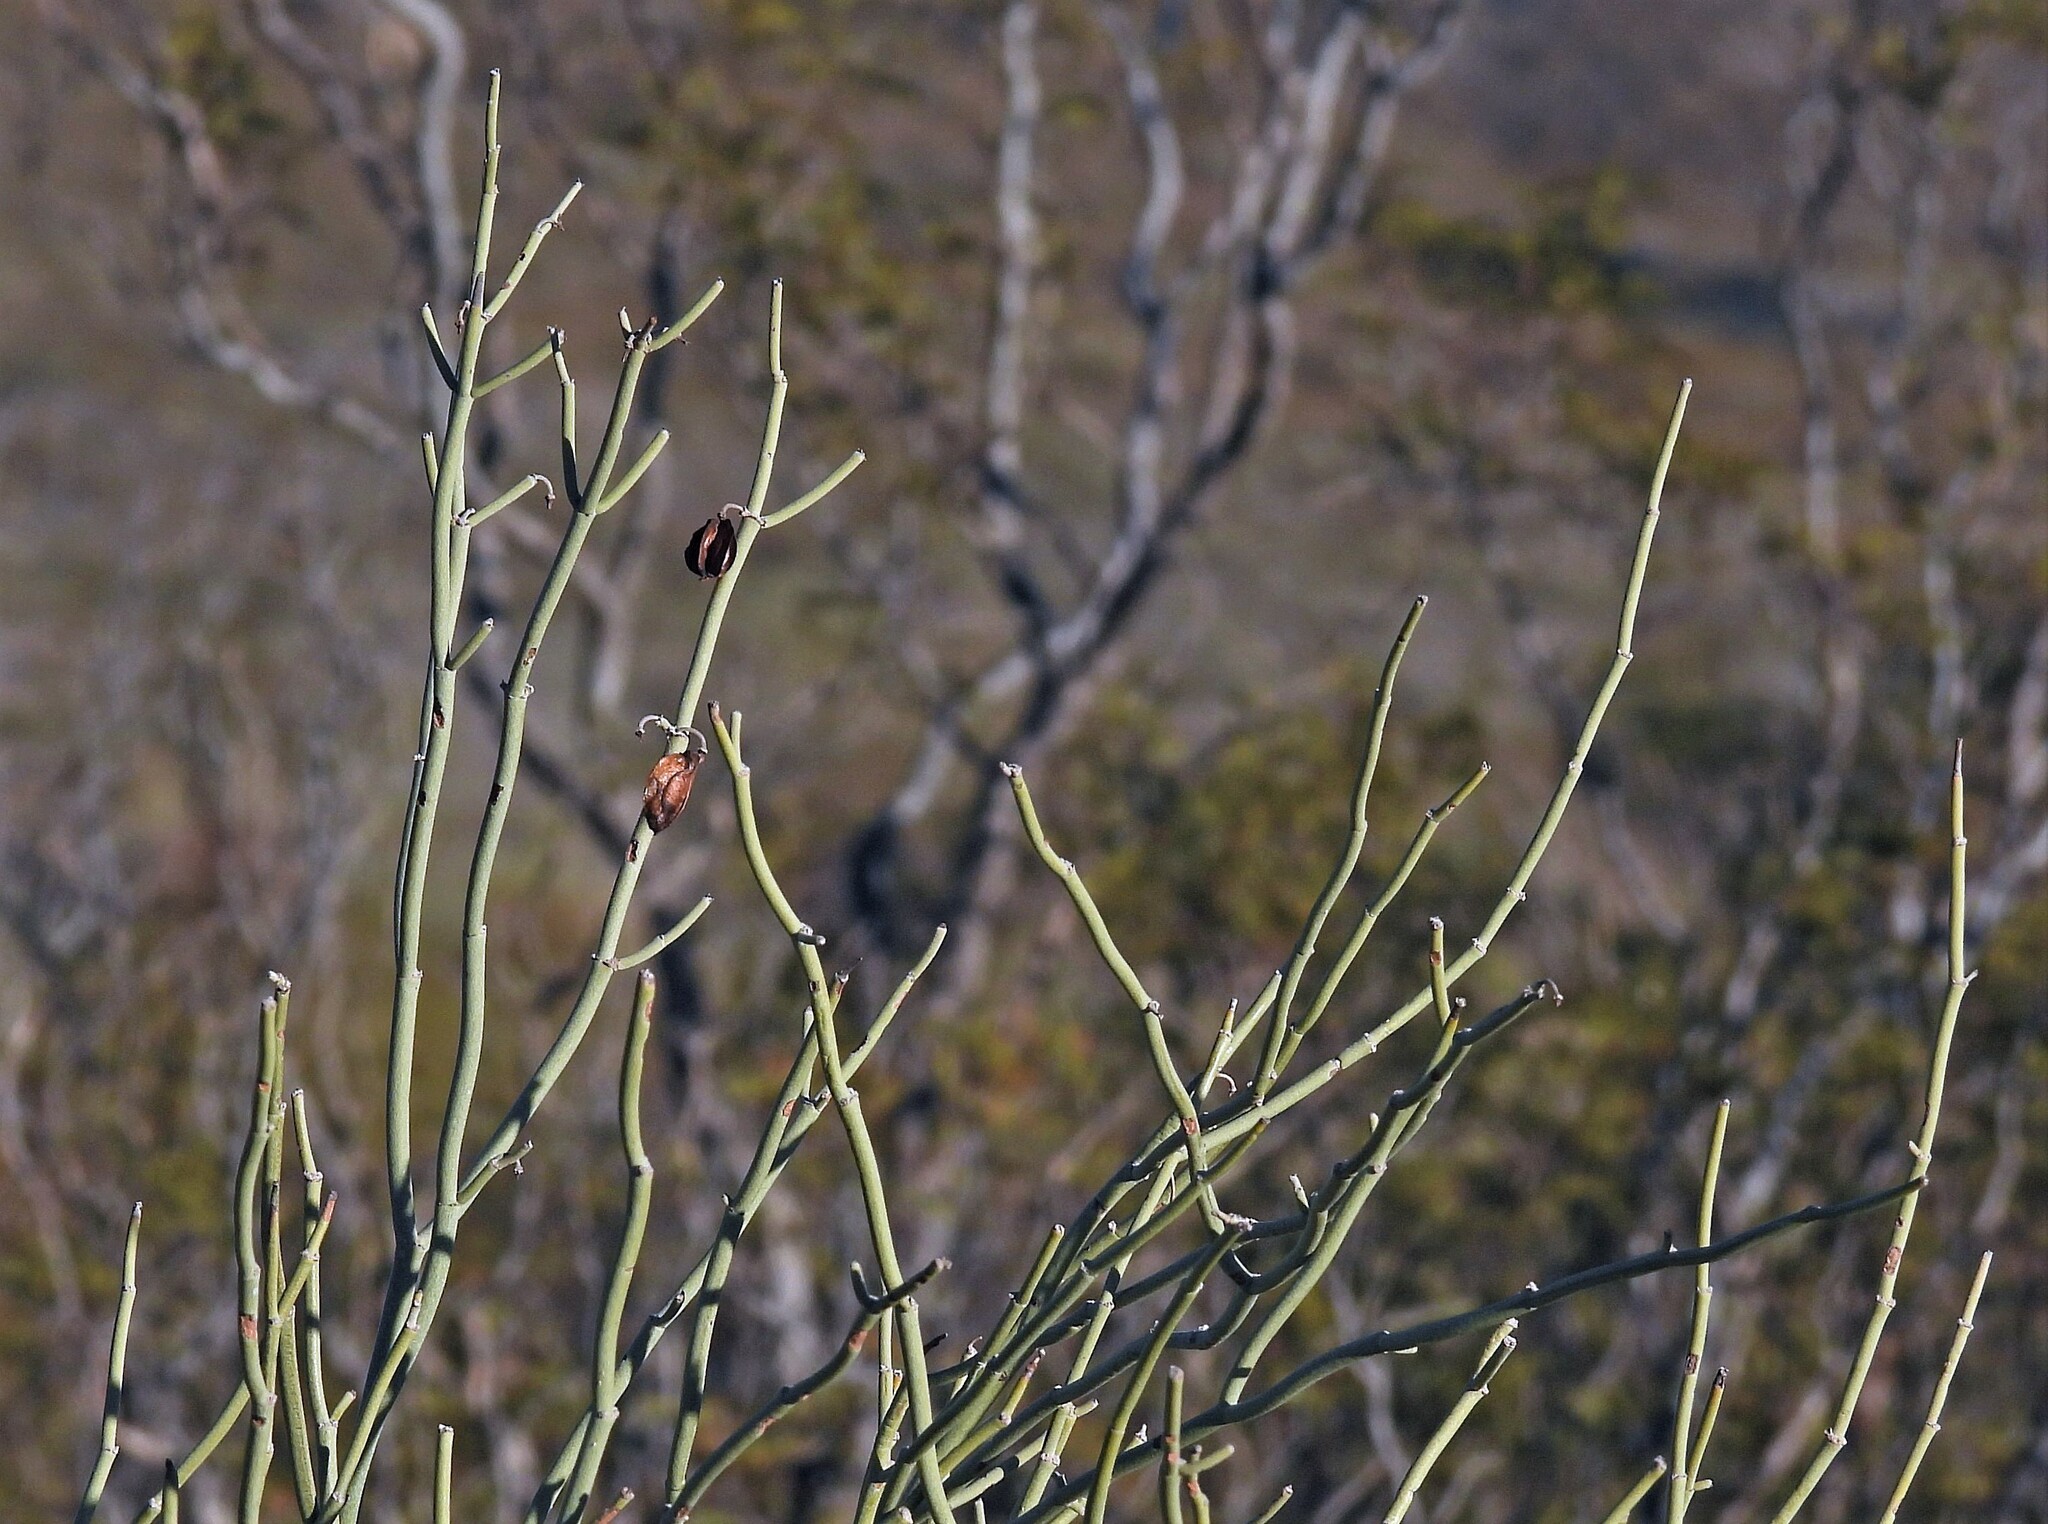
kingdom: Plantae
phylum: Tracheophyta
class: Magnoliopsida
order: Zygophyllales
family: Zygophyllaceae
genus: Bulnesia
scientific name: Bulnesia retama
